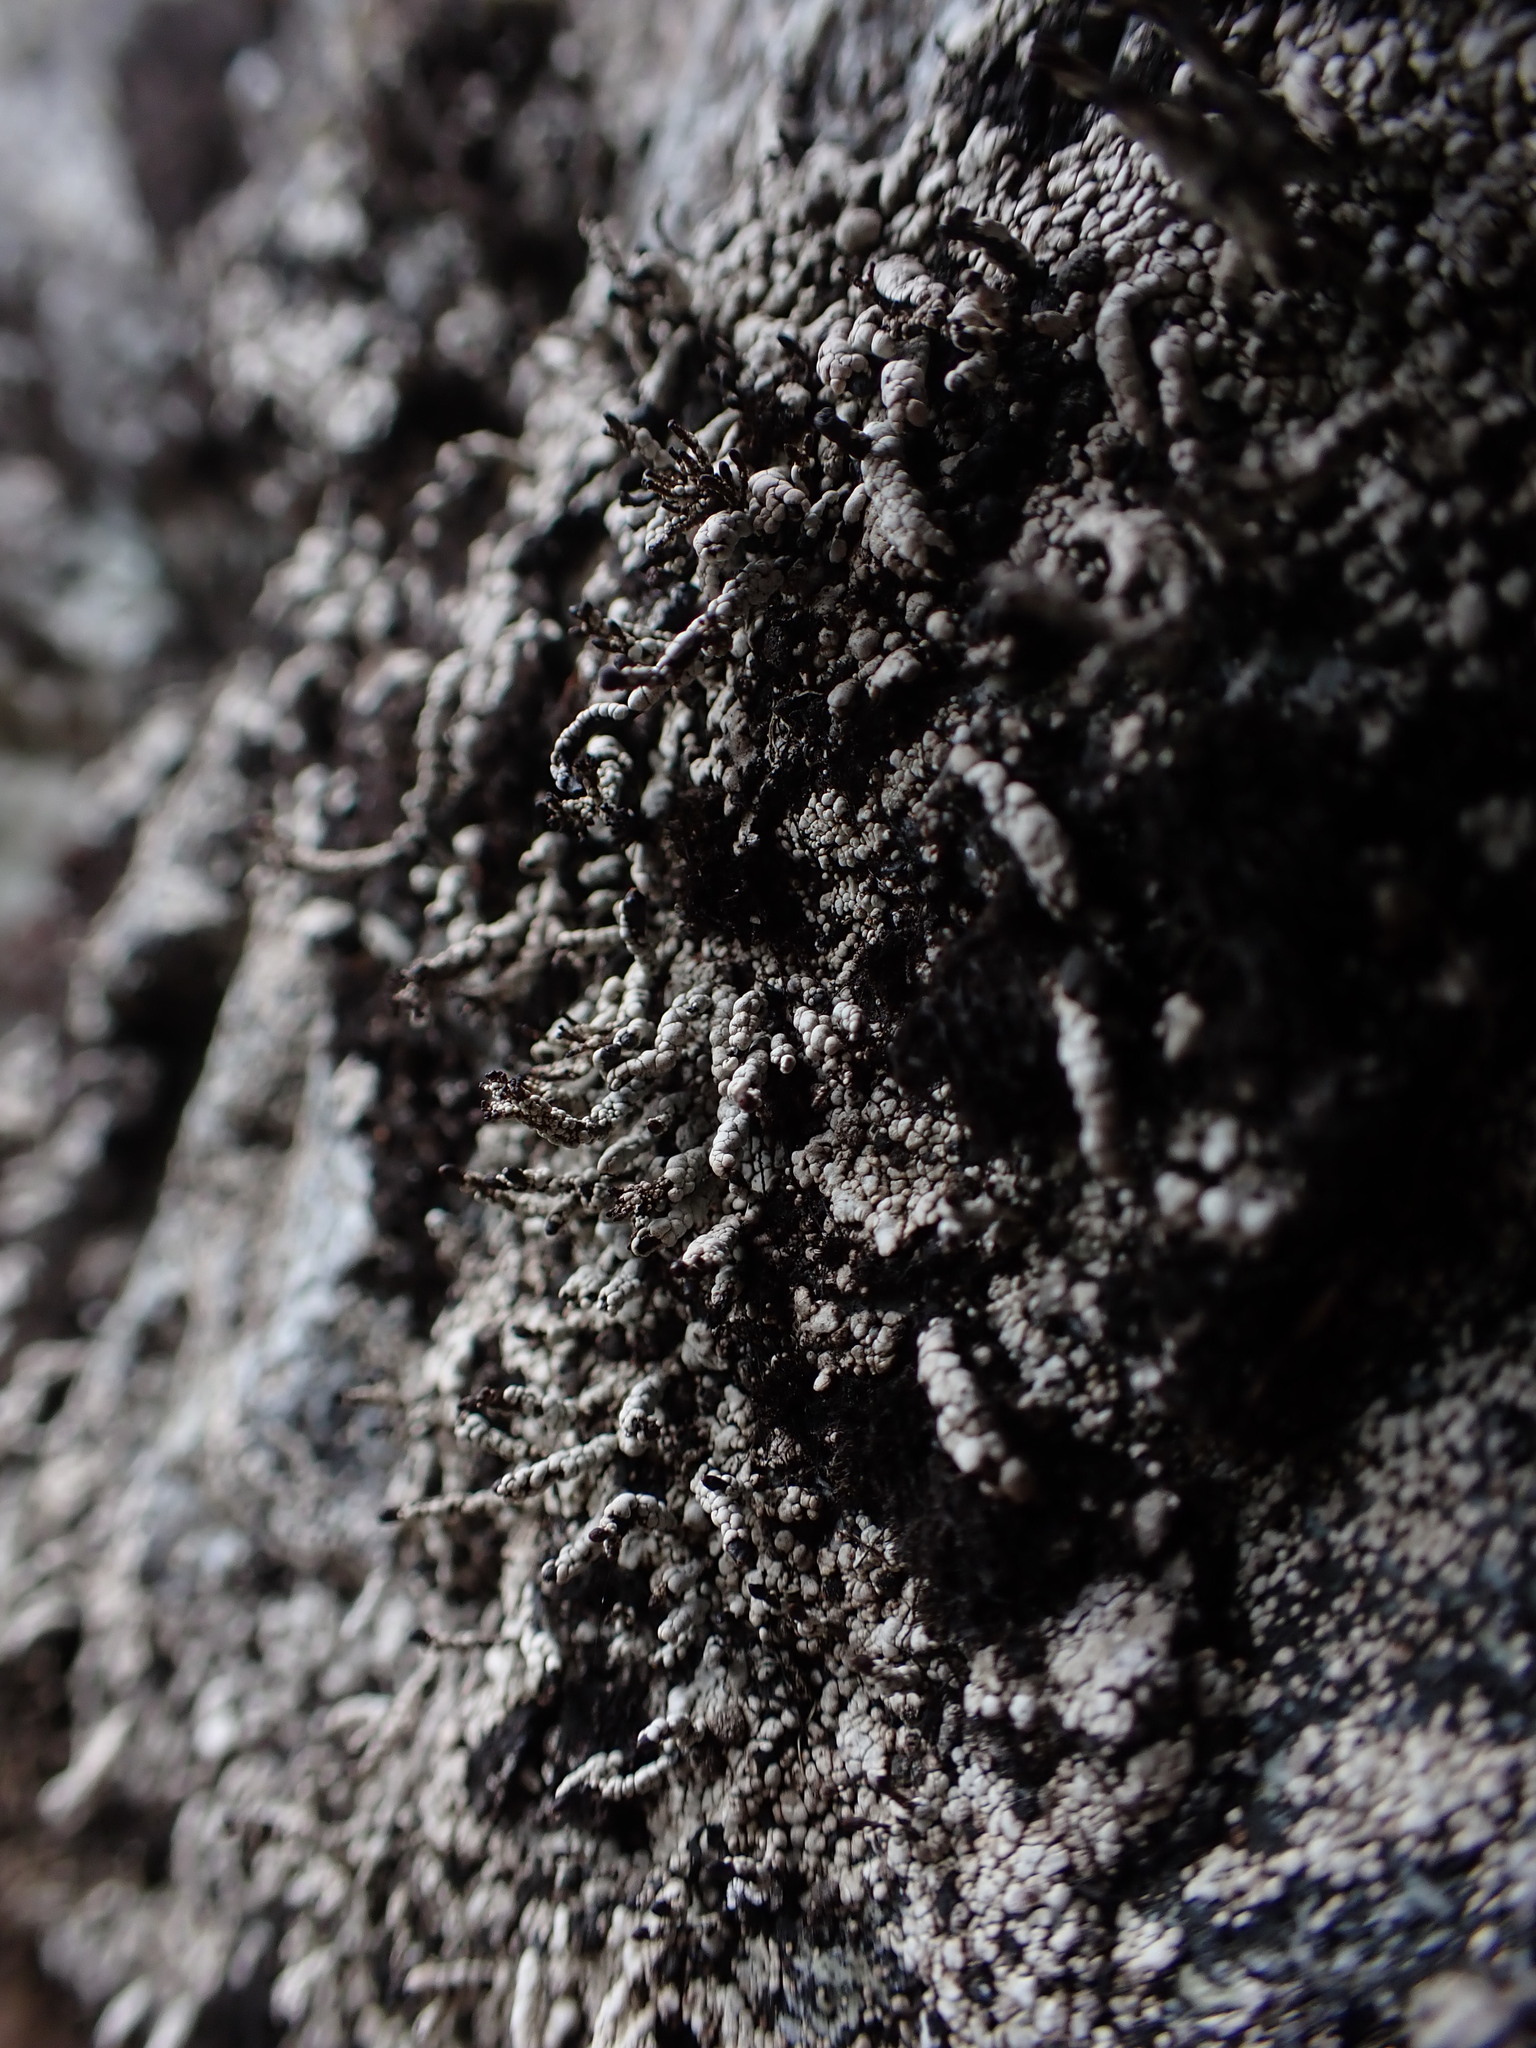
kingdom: Fungi
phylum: Ascomycota
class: Lecanoromycetes
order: Lecanorales
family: Cladoniaceae
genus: Pilophorus
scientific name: Pilophorus nigricaulis
